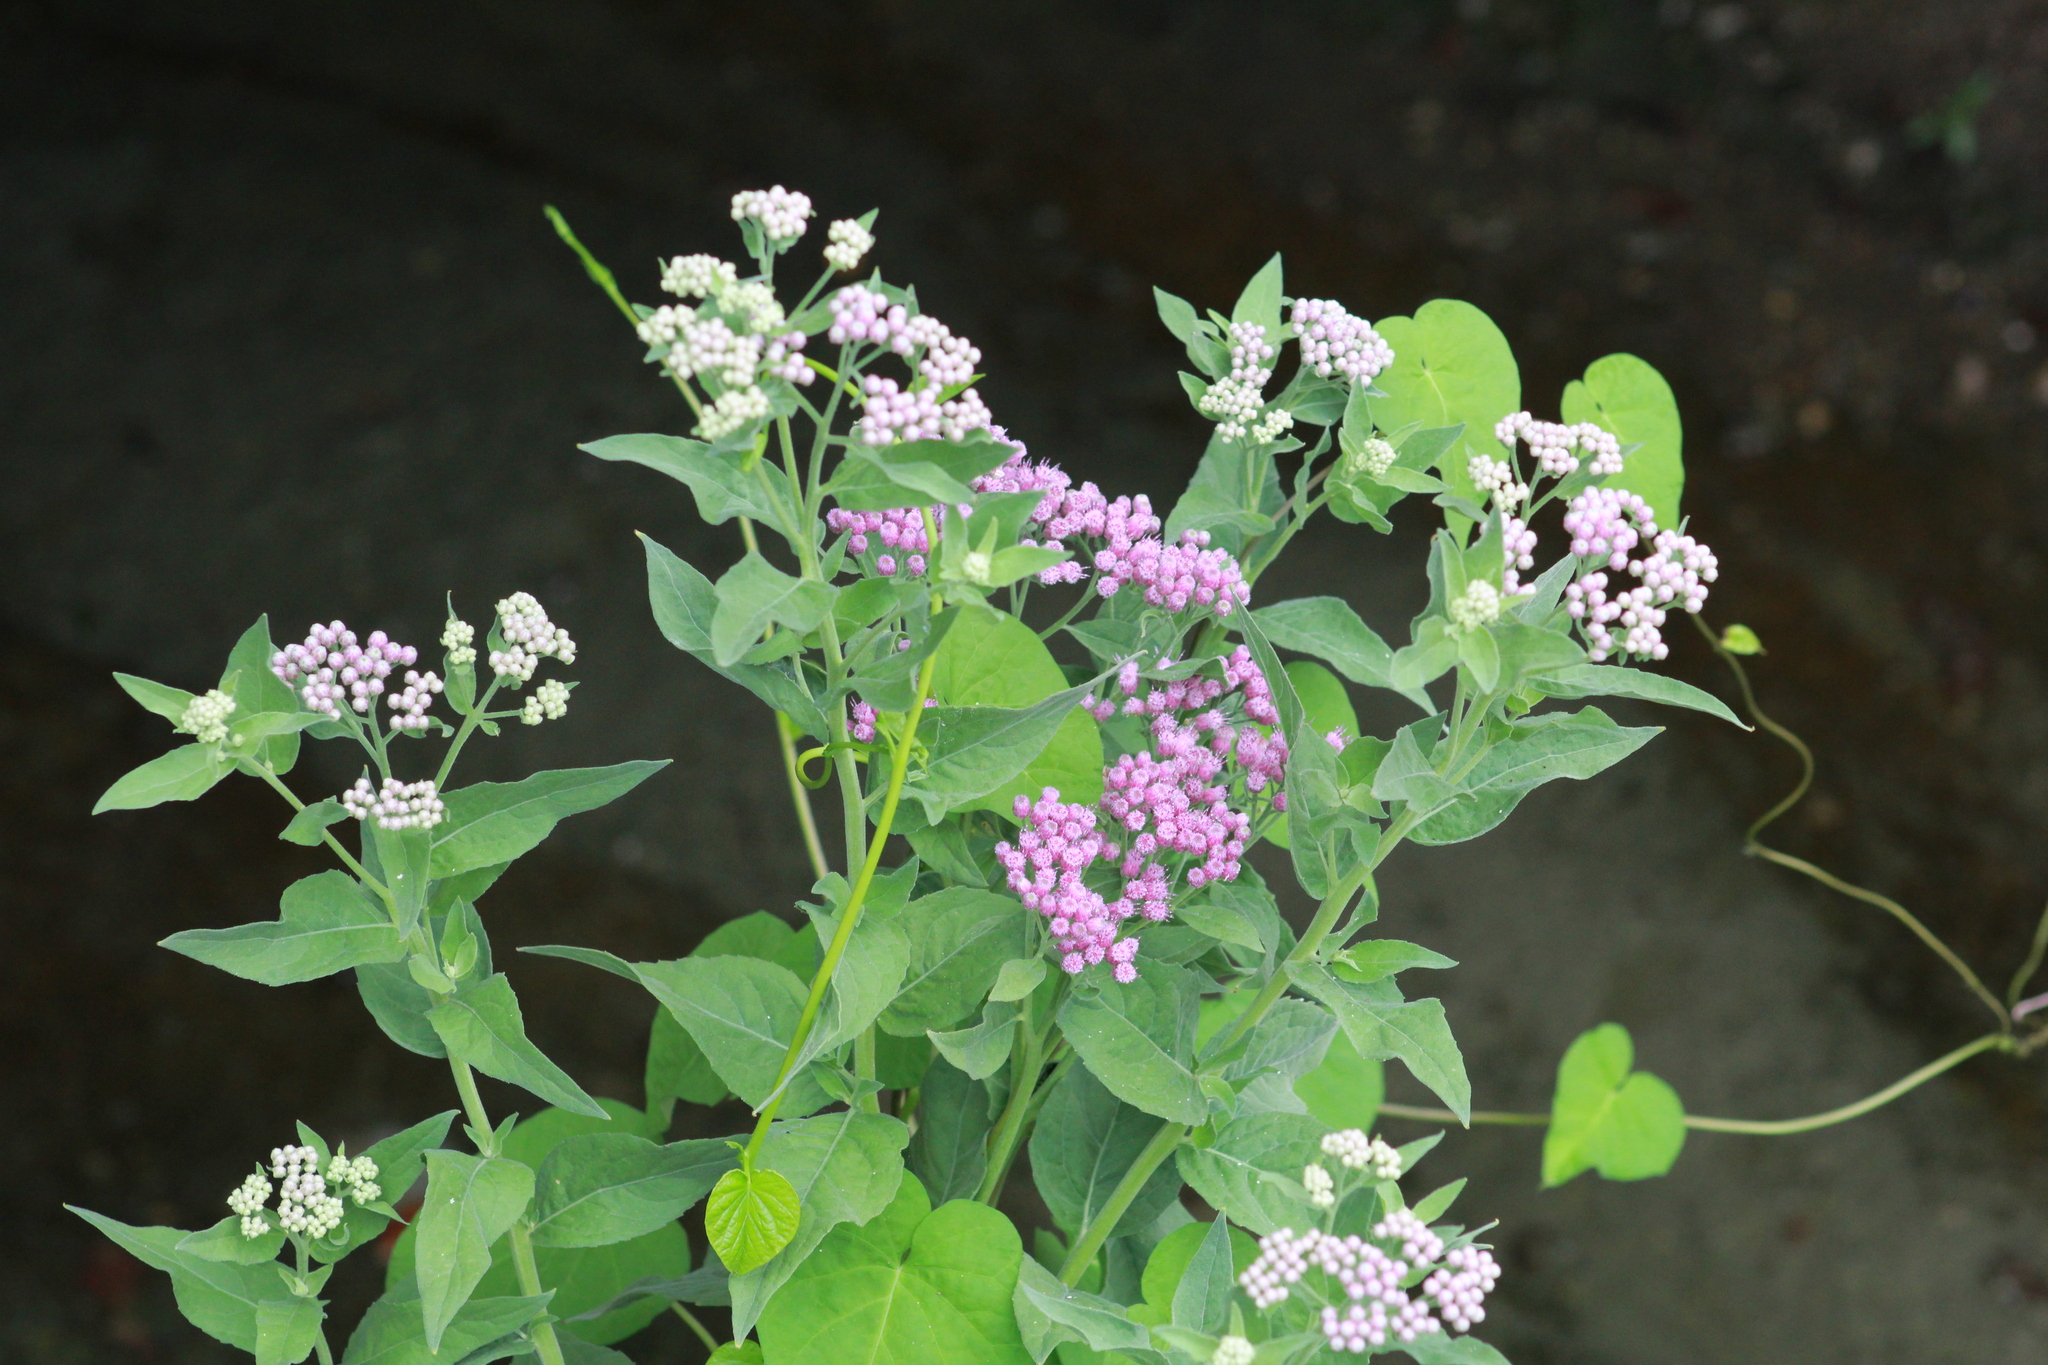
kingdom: Plantae
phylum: Tracheophyta
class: Magnoliopsida
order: Asterales
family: Asteraceae
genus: Pluchea
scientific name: Pluchea odorata
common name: Saltmarsh fleabane
